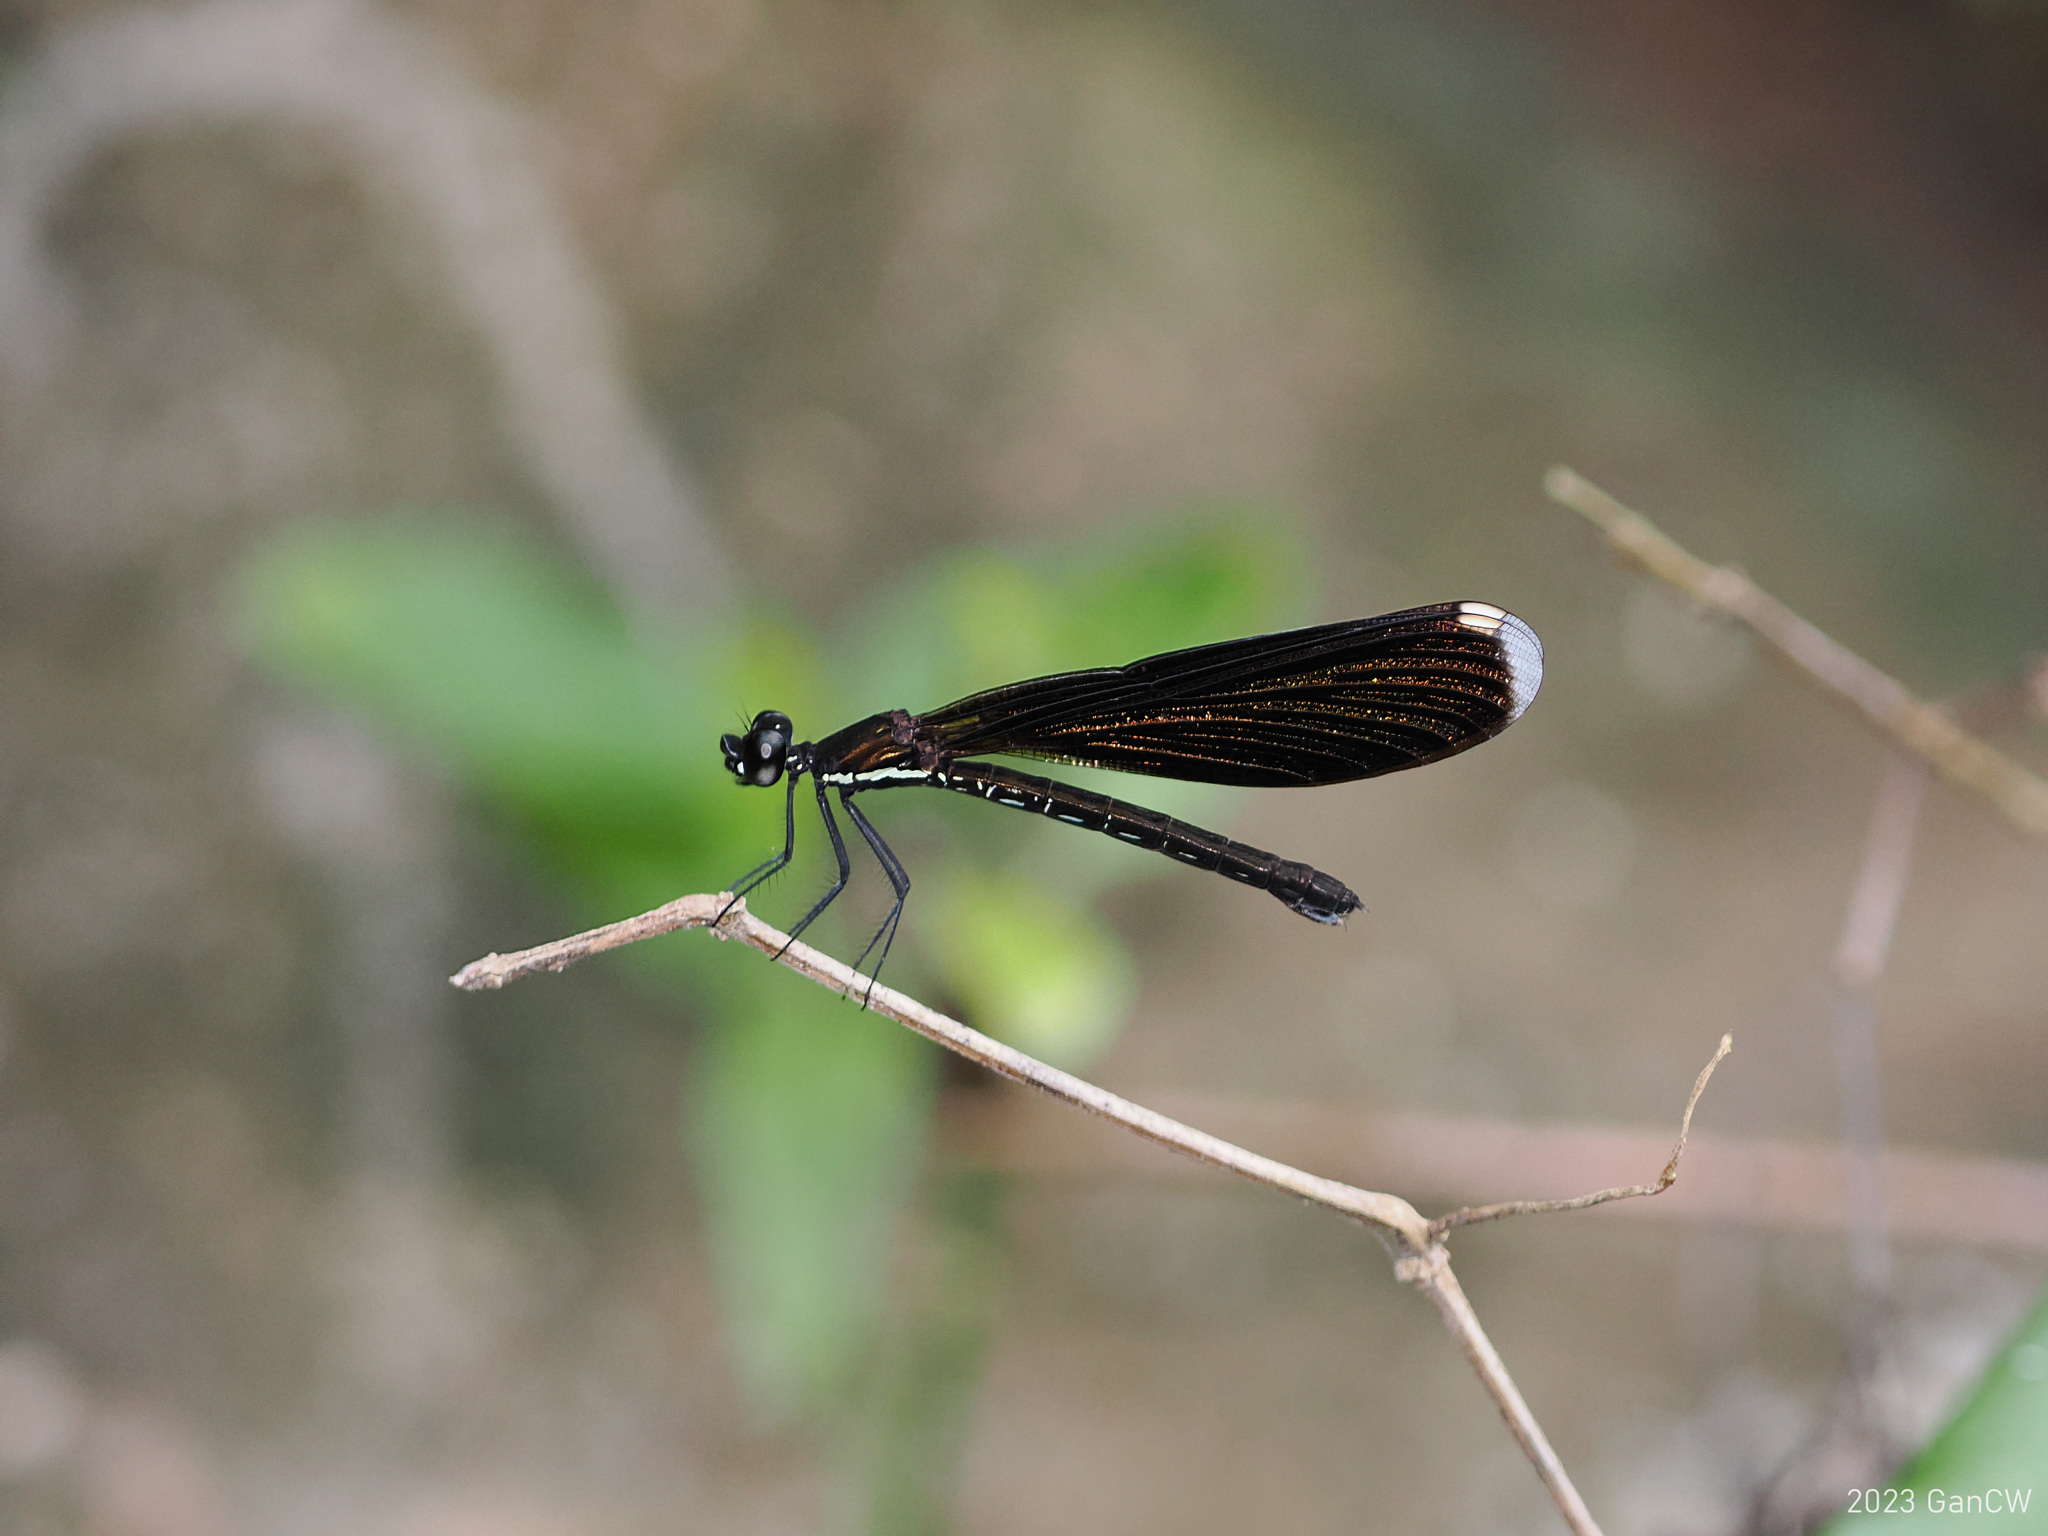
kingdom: Animalia
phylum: Arthropoda
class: Insecta
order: Odonata
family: Chlorocyphidae
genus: Rhinocypha
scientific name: Rhinocypha monochroa
